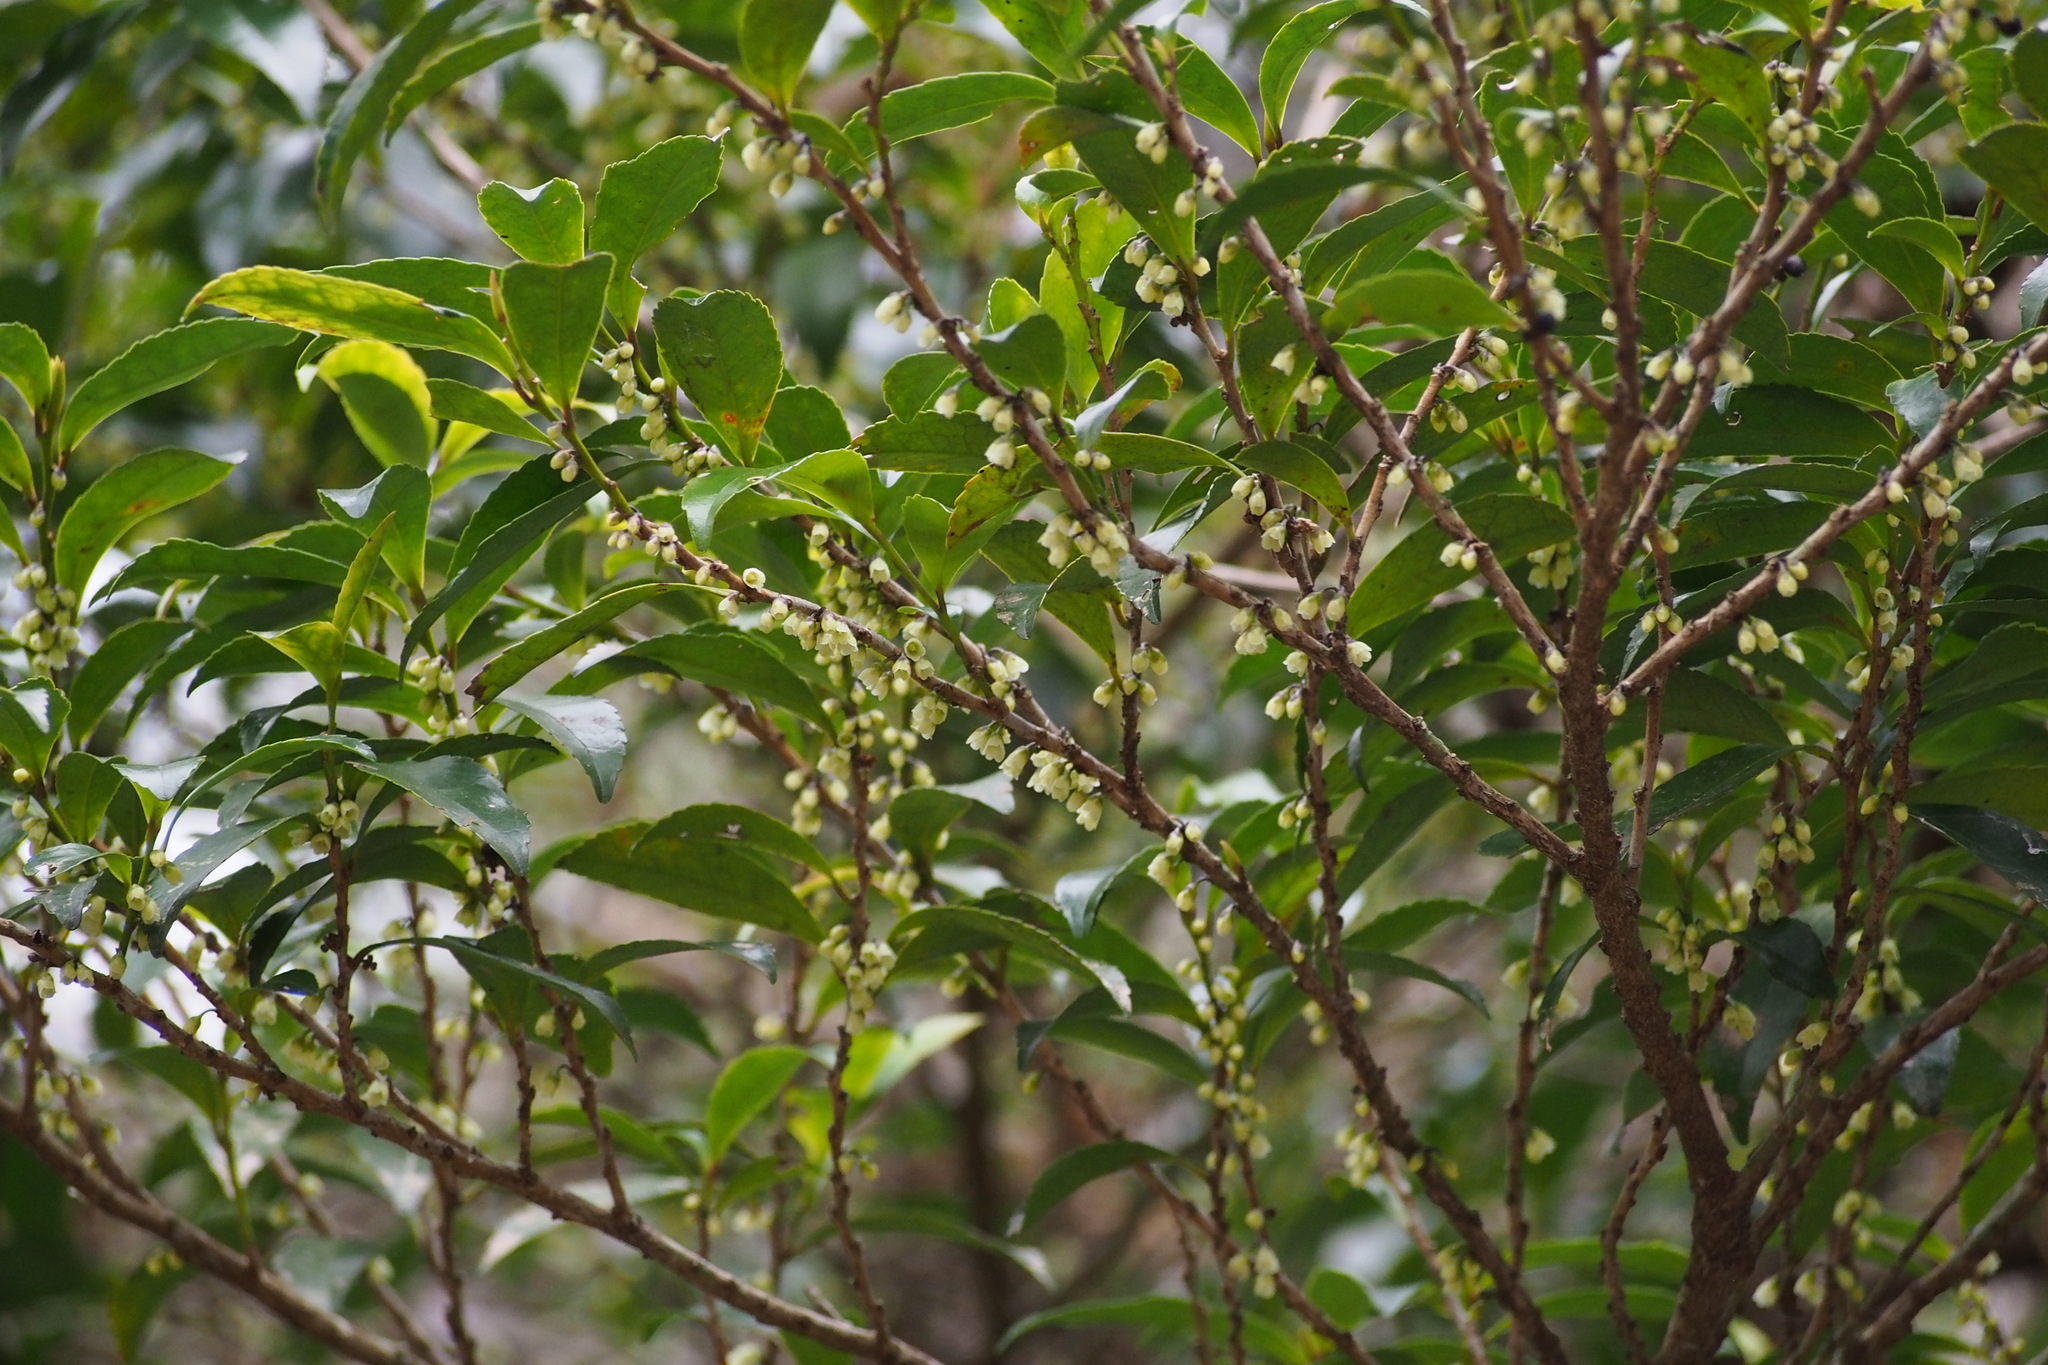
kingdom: Plantae
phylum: Tracheophyta
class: Magnoliopsida
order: Ericales
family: Pentaphylacaceae
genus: Eurya
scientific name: Eurya japonica
